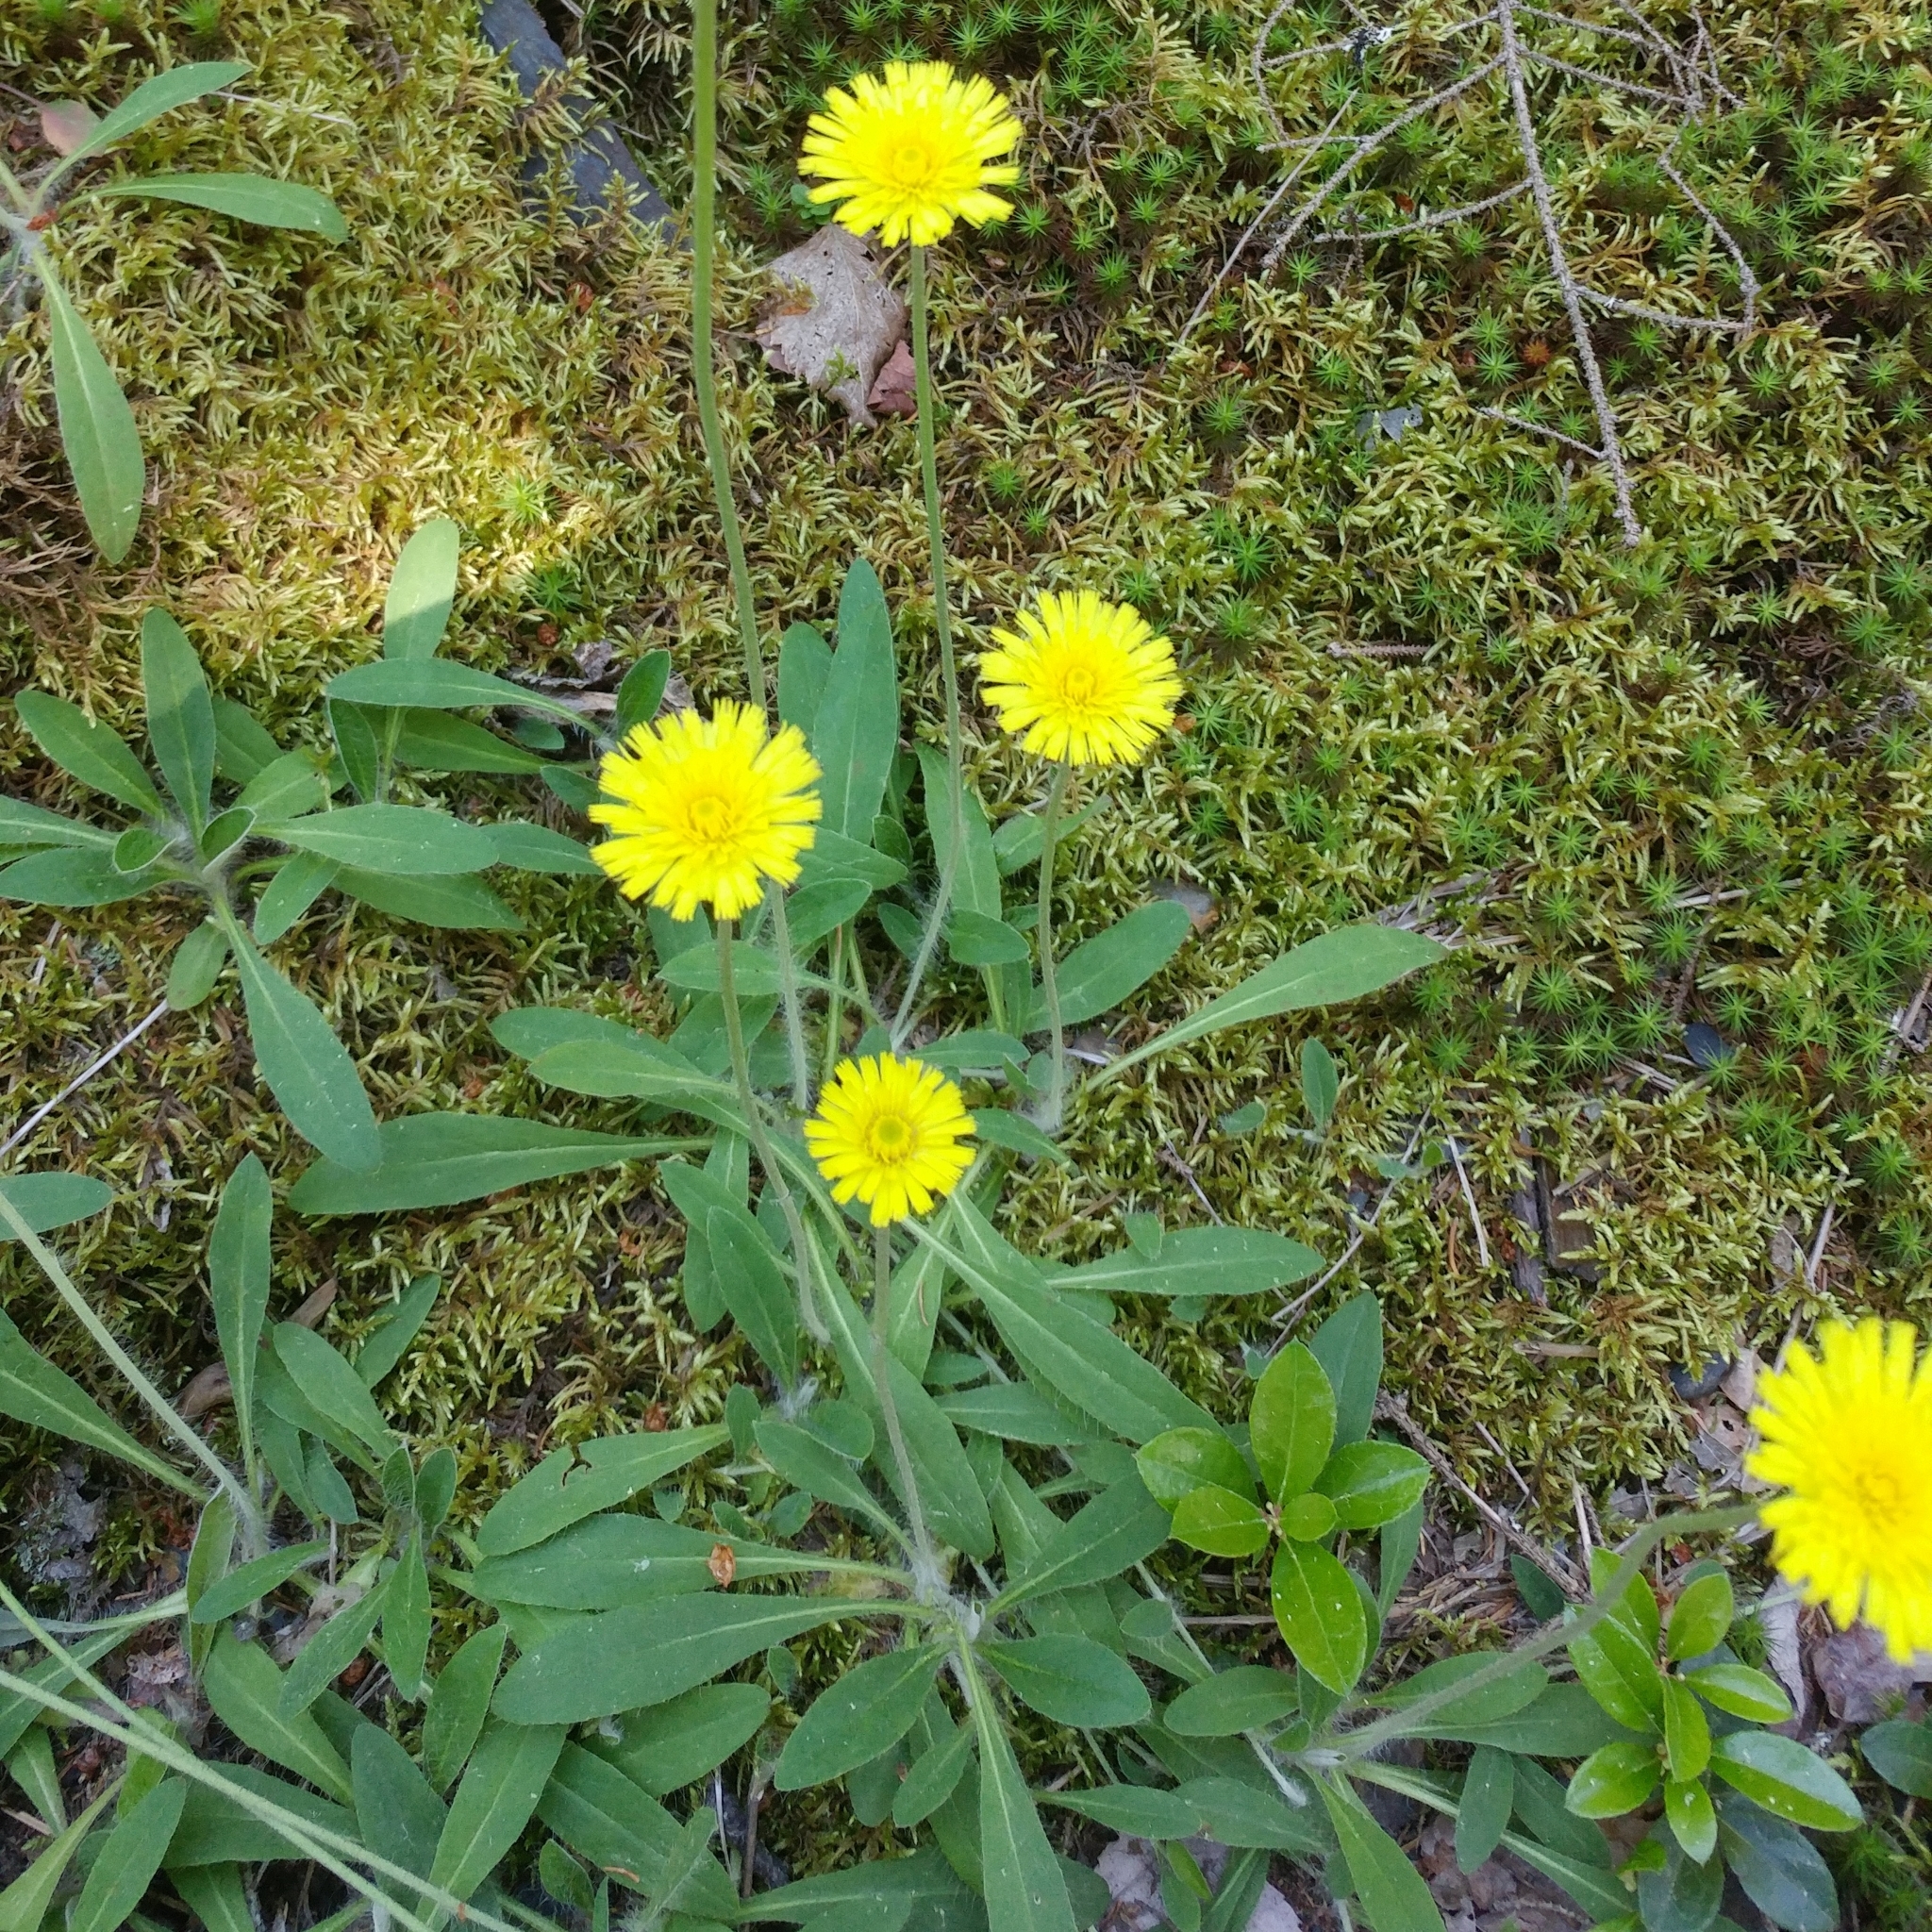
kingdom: Plantae
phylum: Tracheophyta
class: Magnoliopsida
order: Asterales
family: Asteraceae
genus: Pilosella
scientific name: Pilosella officinarum
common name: Mouse-ear hawkweed
